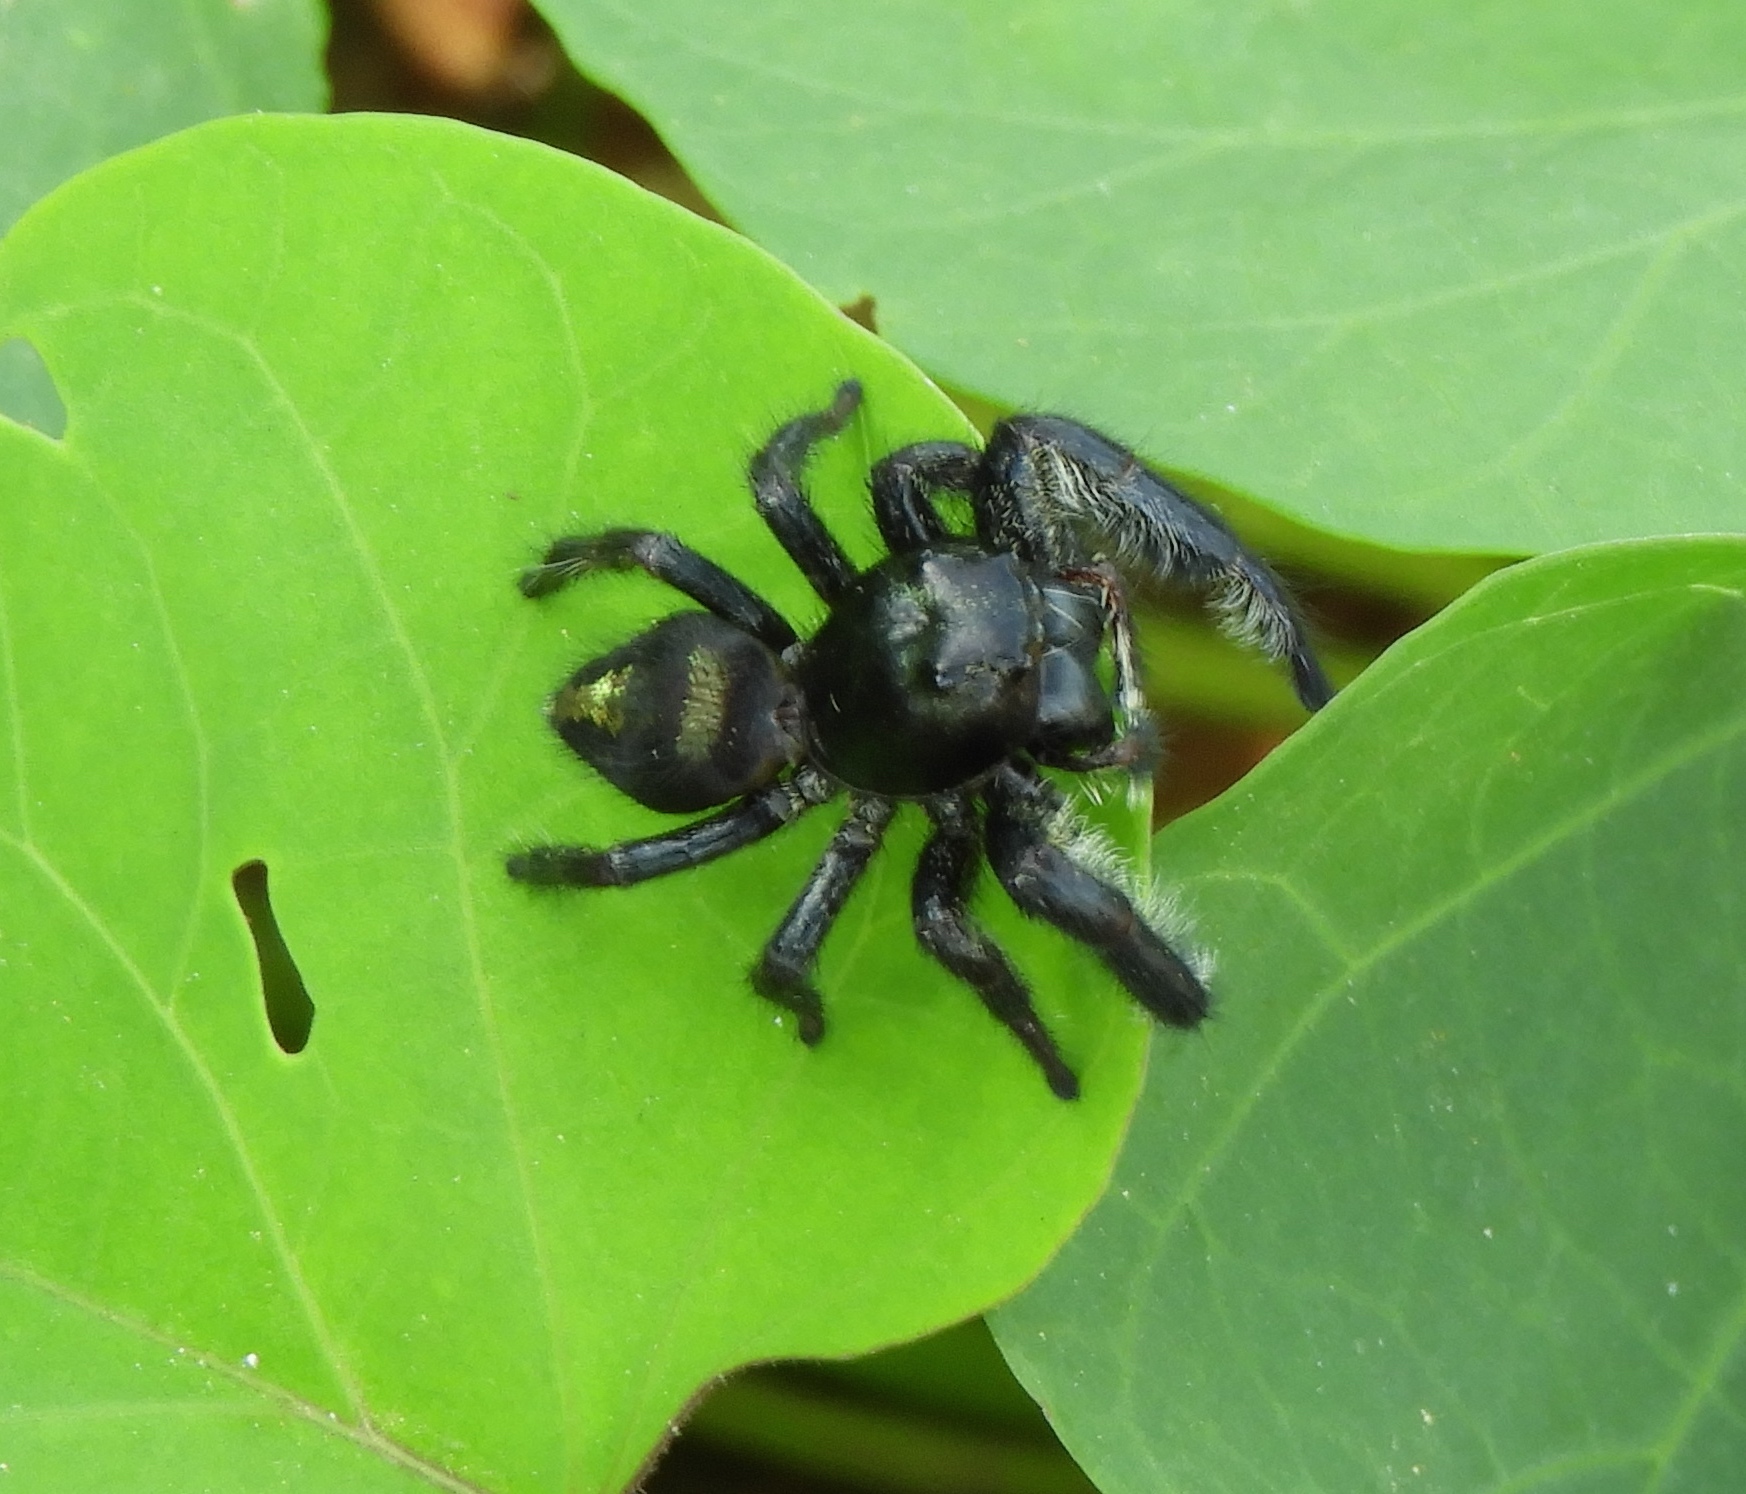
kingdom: Animalia
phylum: Arthropoda
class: Arachnida
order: Araneae
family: Salticidae
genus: Paraphidippus
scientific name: Paraphidippus
